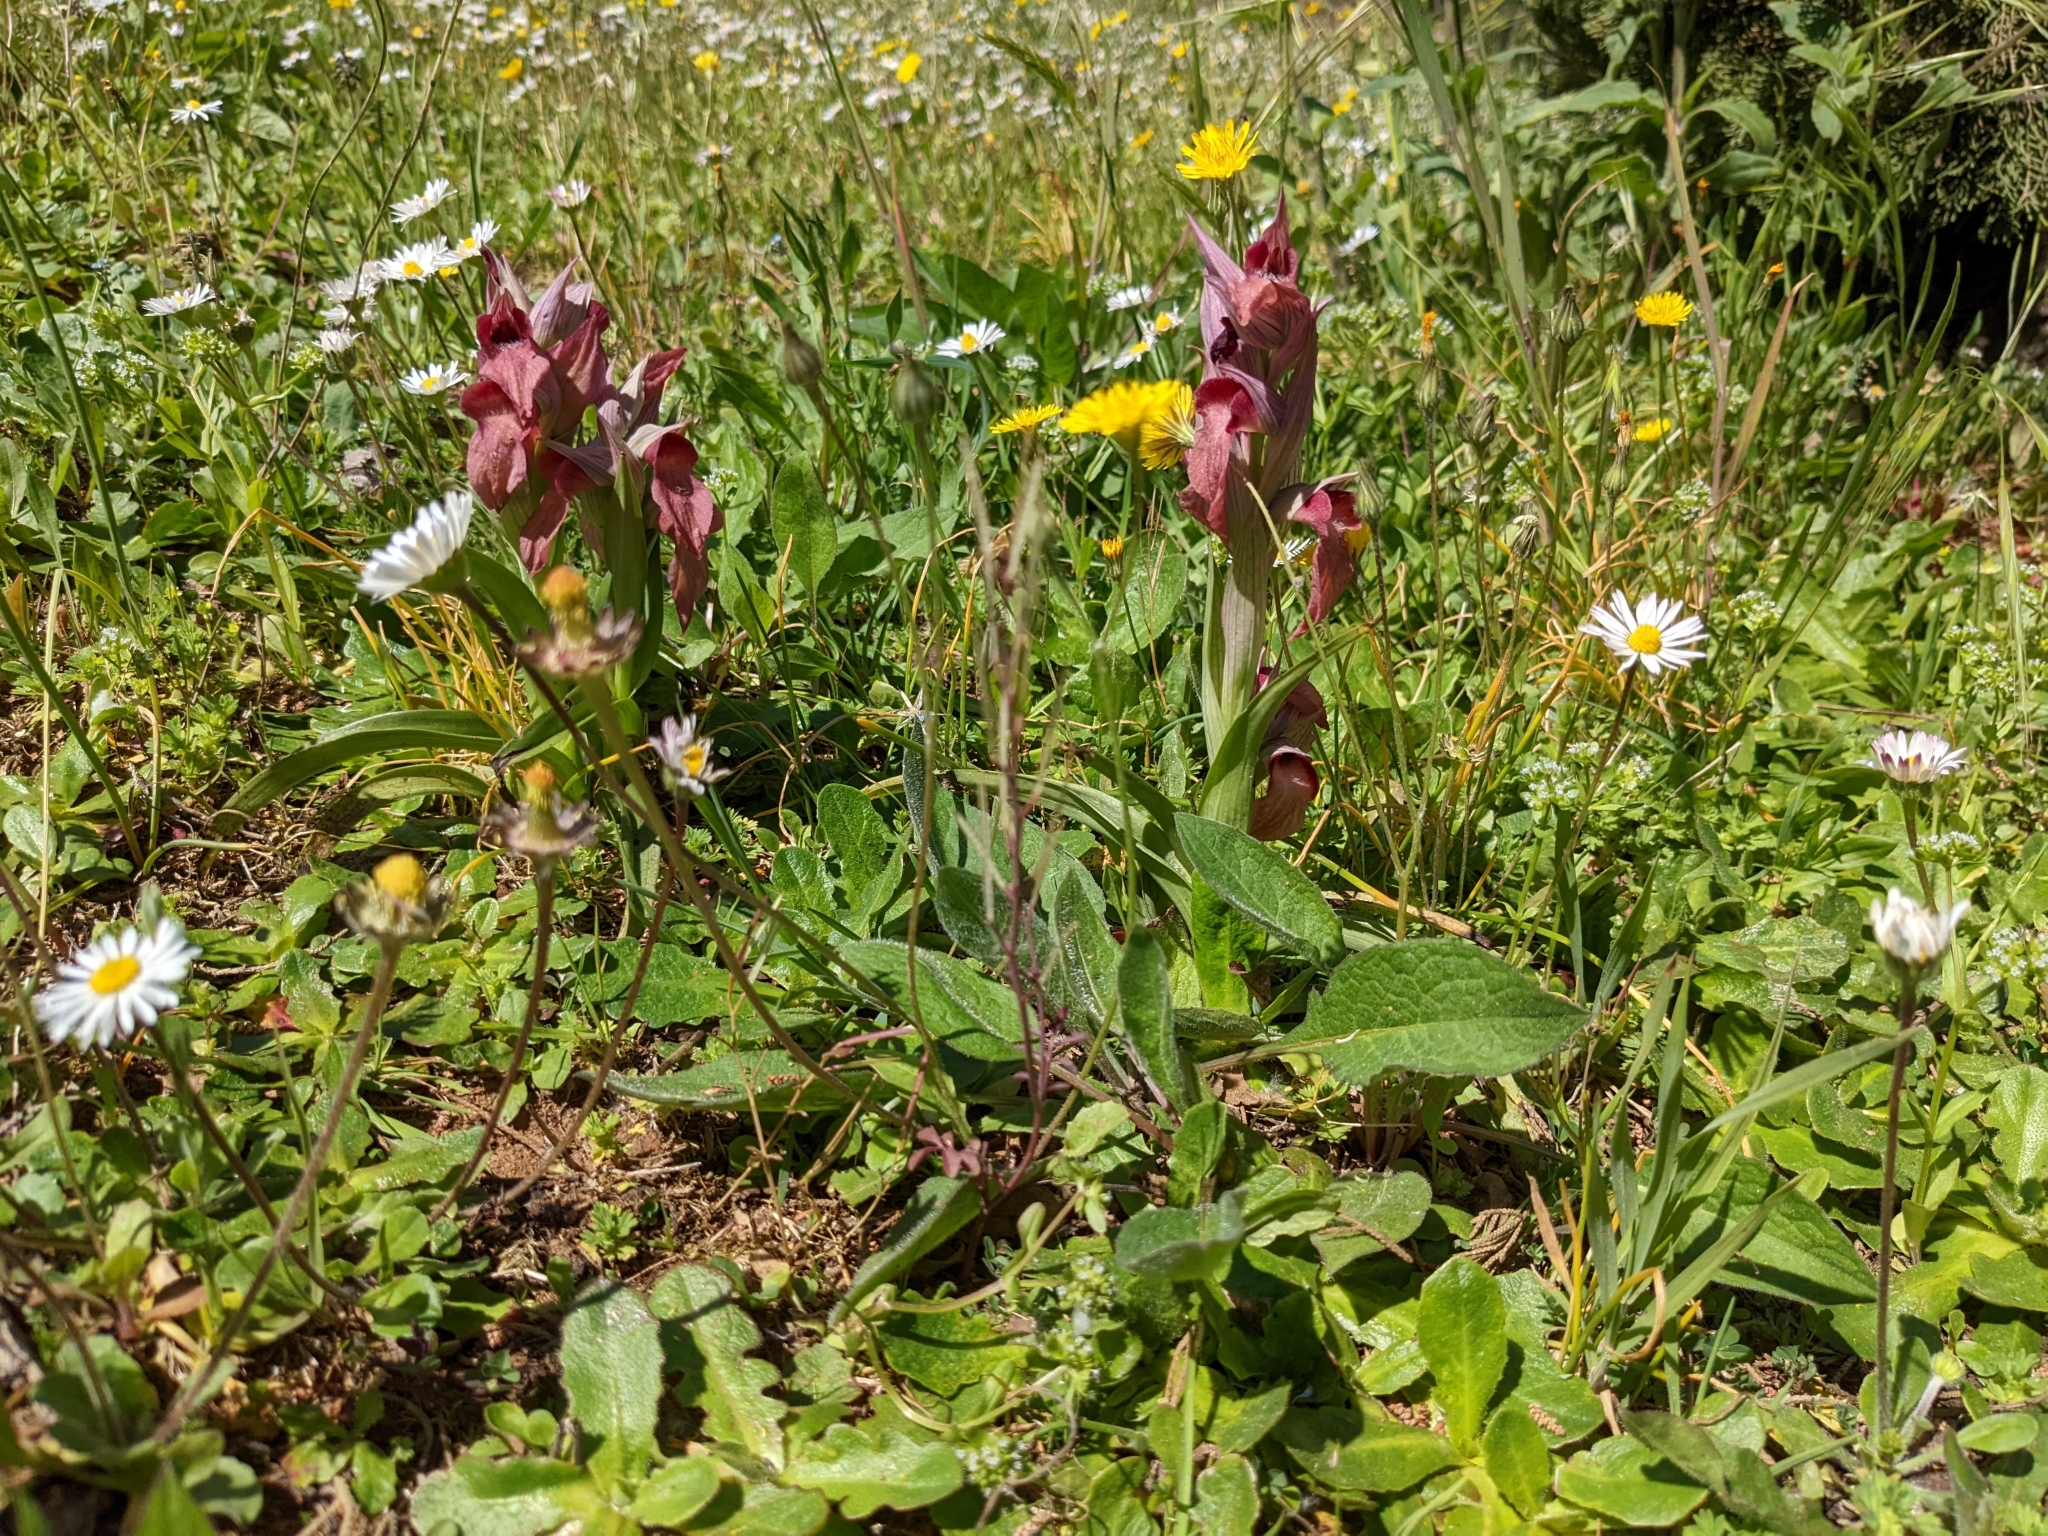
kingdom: Plantae
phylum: Tracheophyta
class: Liliopsida
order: Asparagales
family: Orchidaceae
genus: Serapias
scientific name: Serapias neglecta
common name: Neglected serapias
